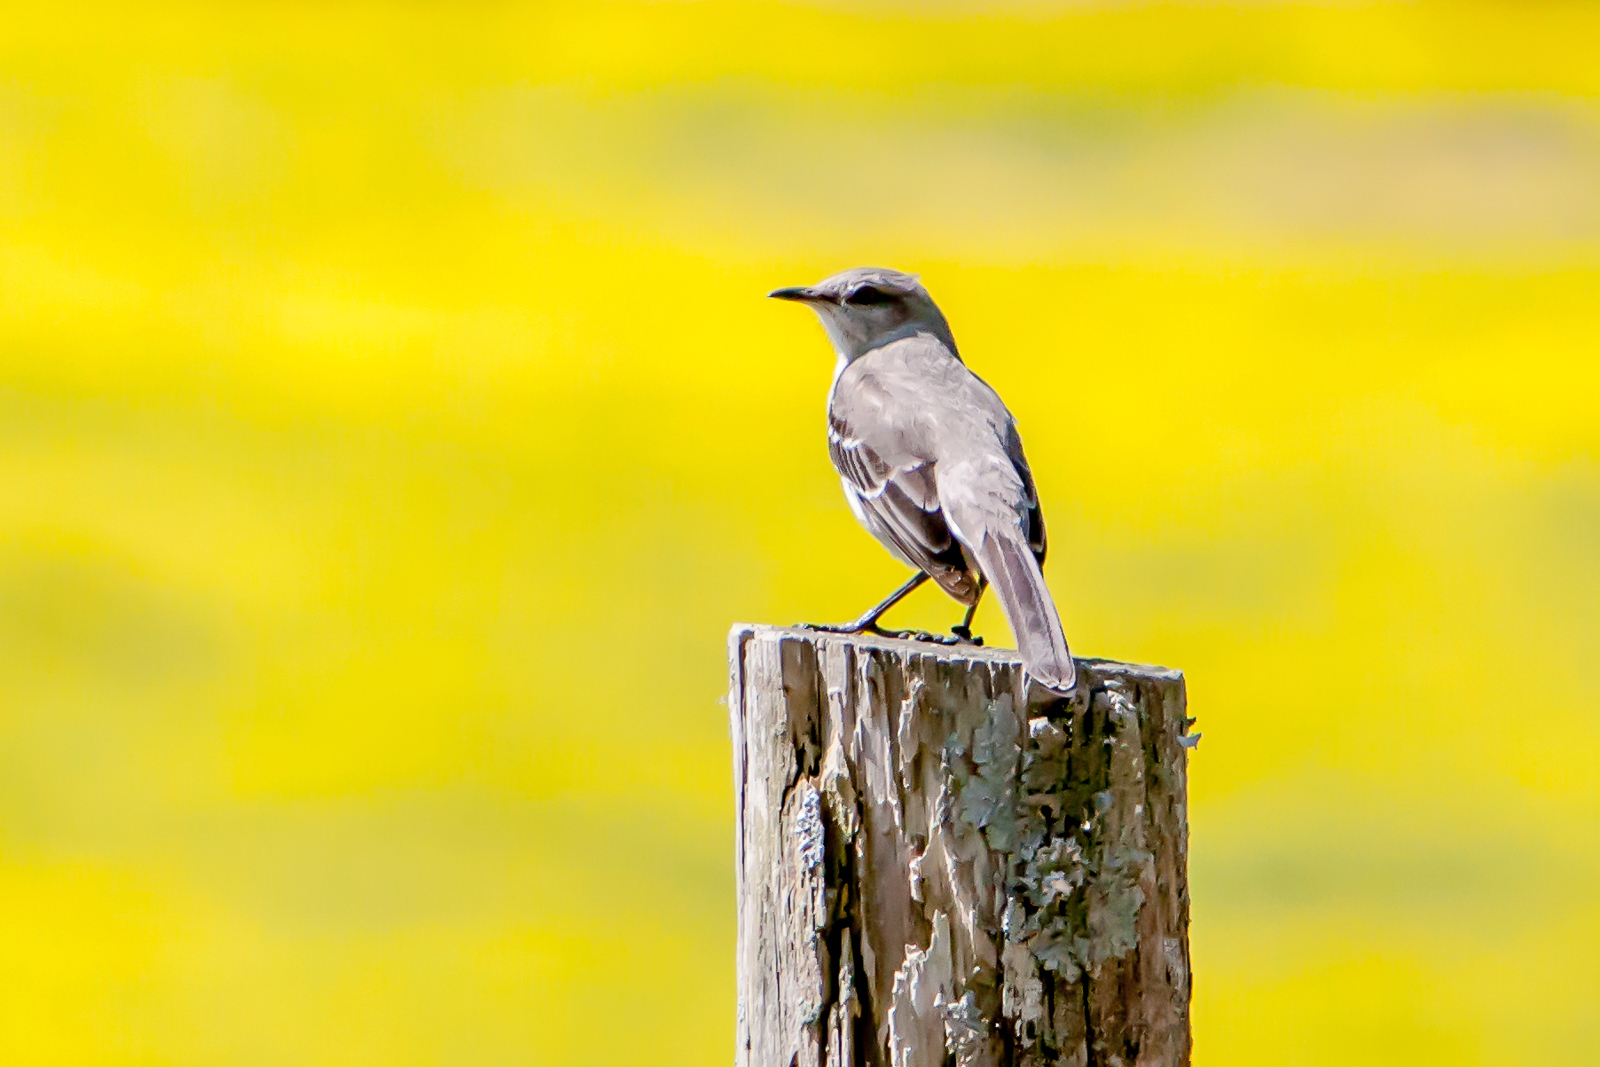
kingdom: Animalia
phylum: Chordata
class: Aves
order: Passeriformes
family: Mimidae
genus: Mimus
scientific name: Mimus polyglottos
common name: Northern mockingbird
